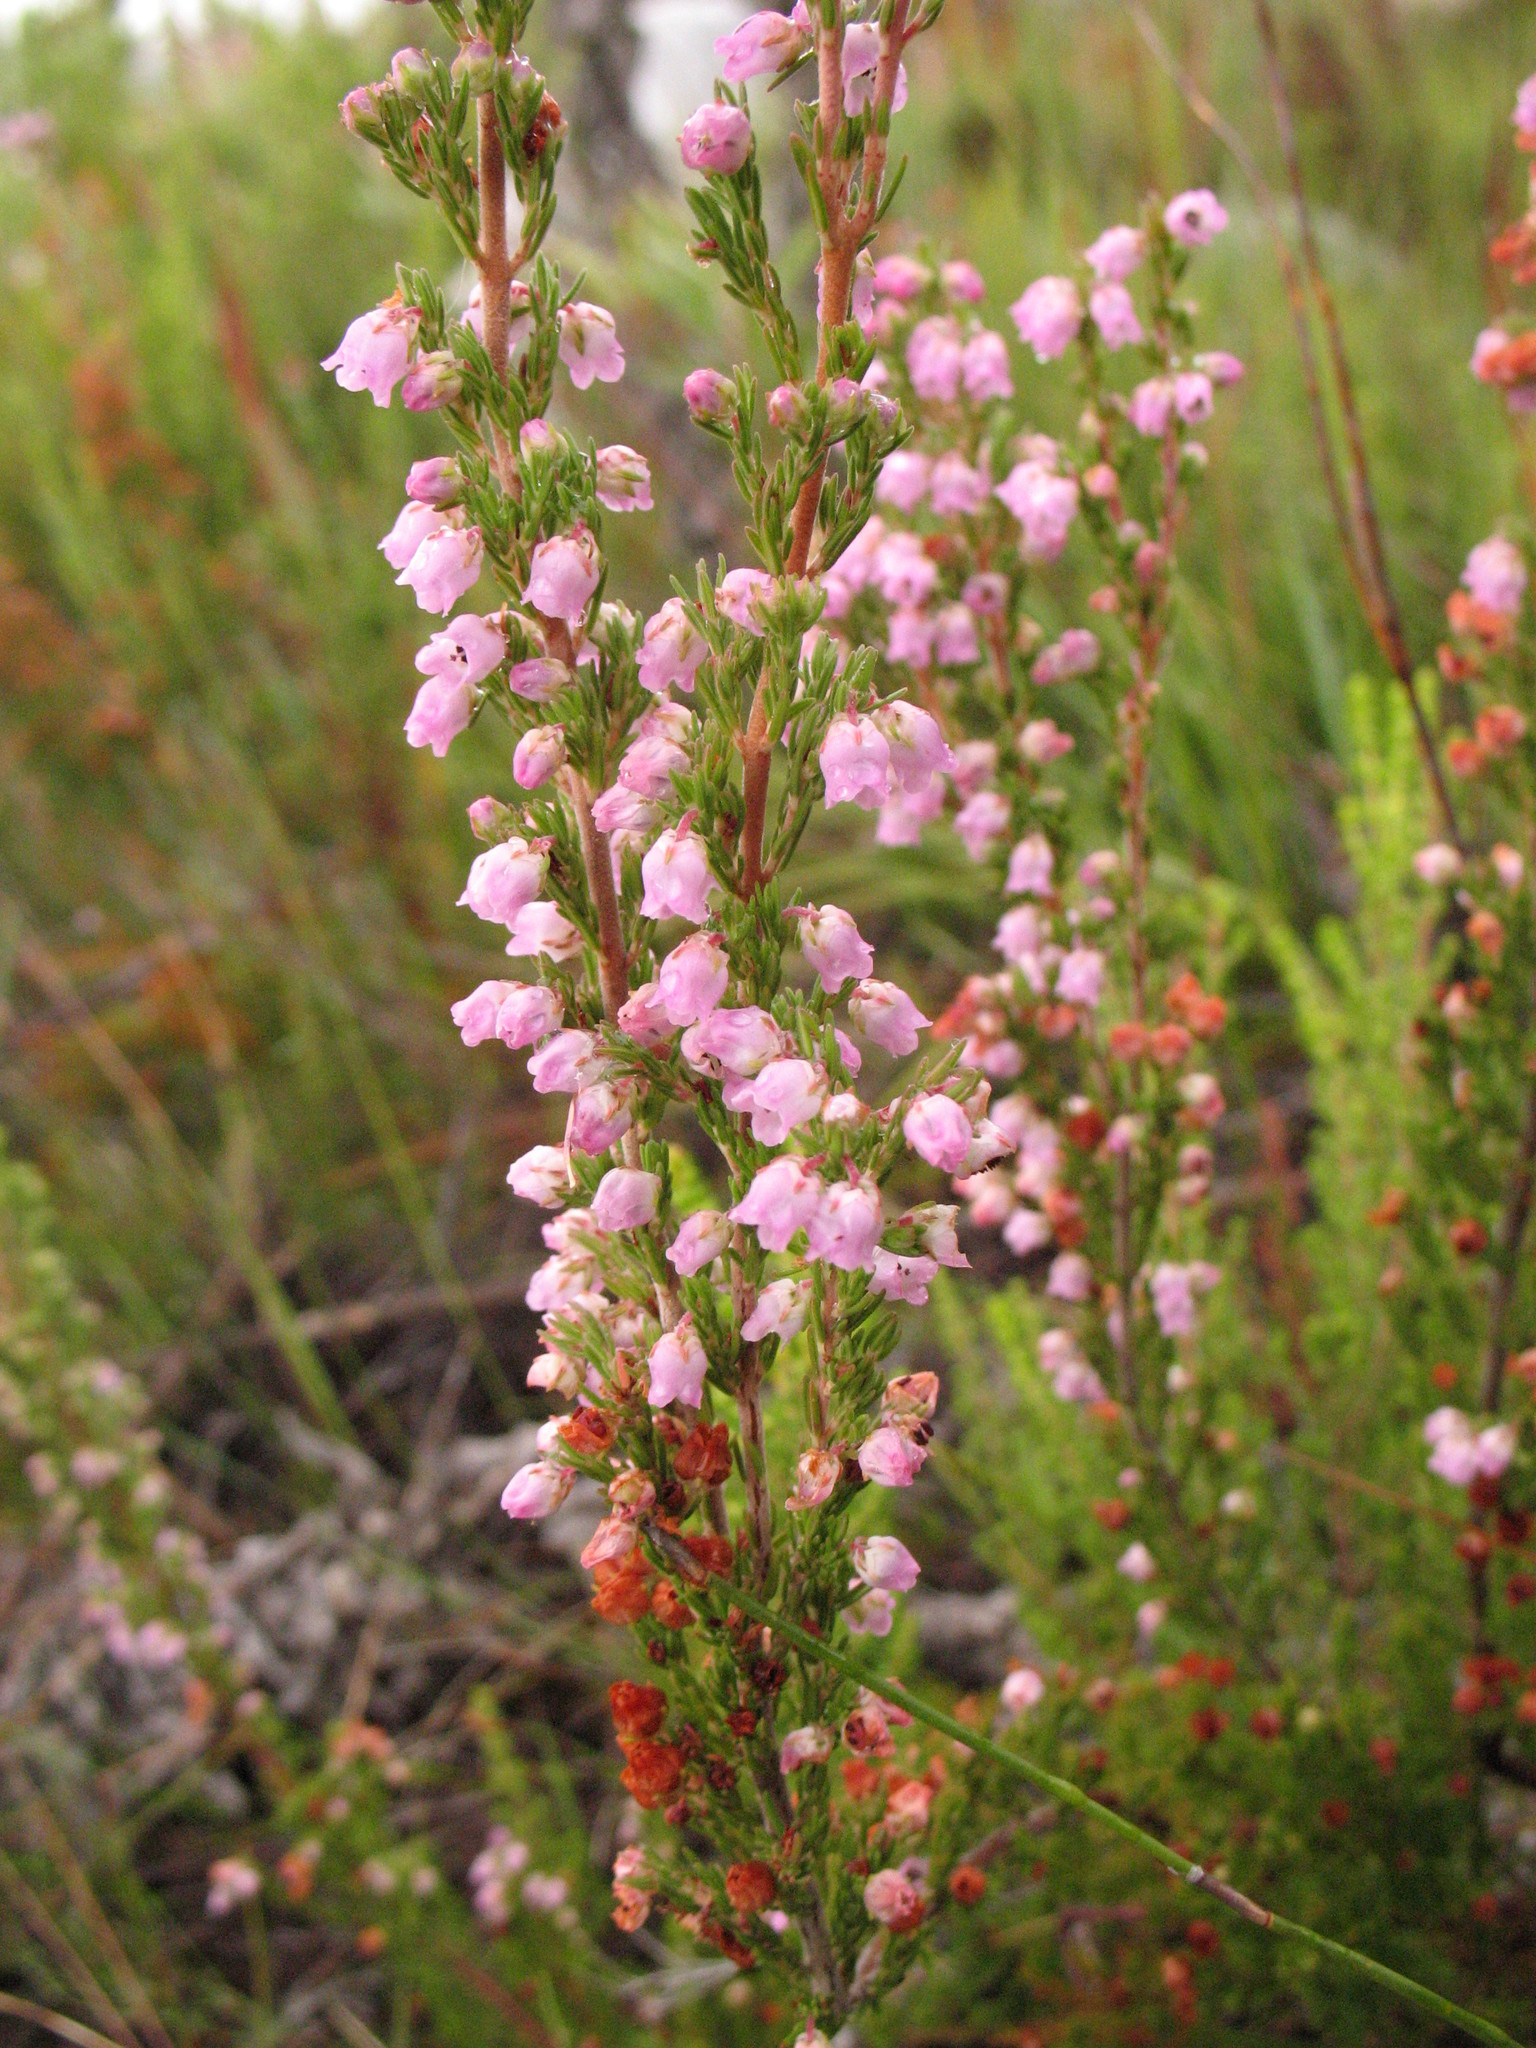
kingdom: Plantae
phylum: Tracheophyta
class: Magnoliopsida
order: Ericales
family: Ericaceae
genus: Erica
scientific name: Erica condensata
